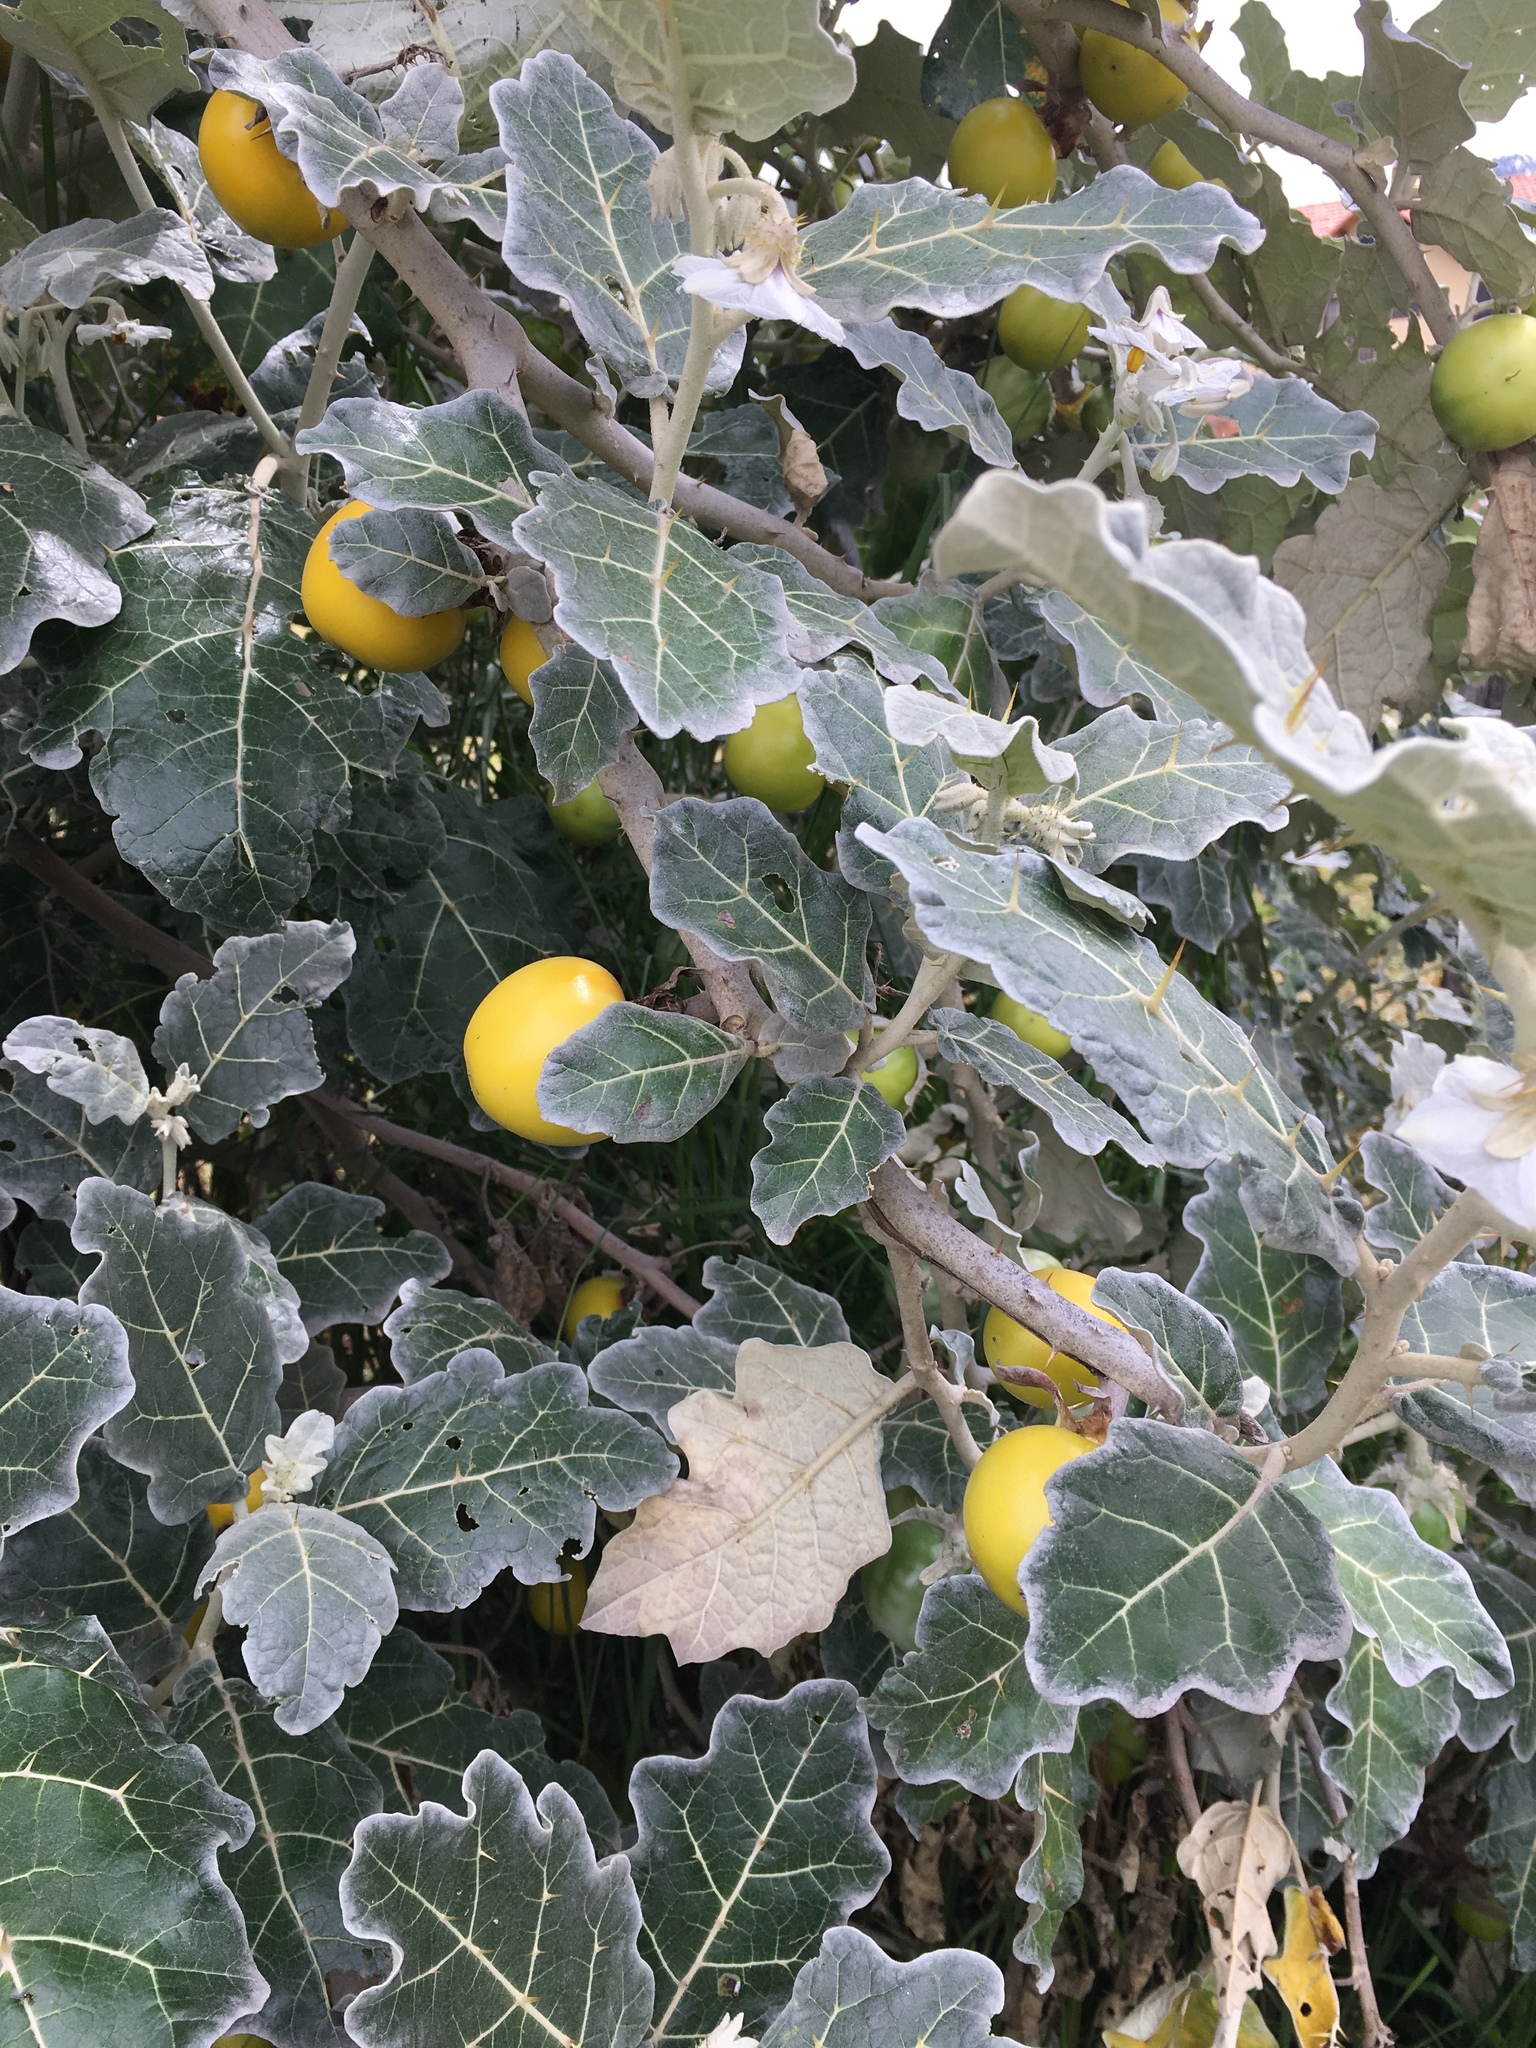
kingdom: Plantae
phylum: Tracheophyta
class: Magnoliopsida
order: Solanales
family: Solanaceae
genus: Solanum
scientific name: Solanum marginatum
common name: Purple african nightshade
